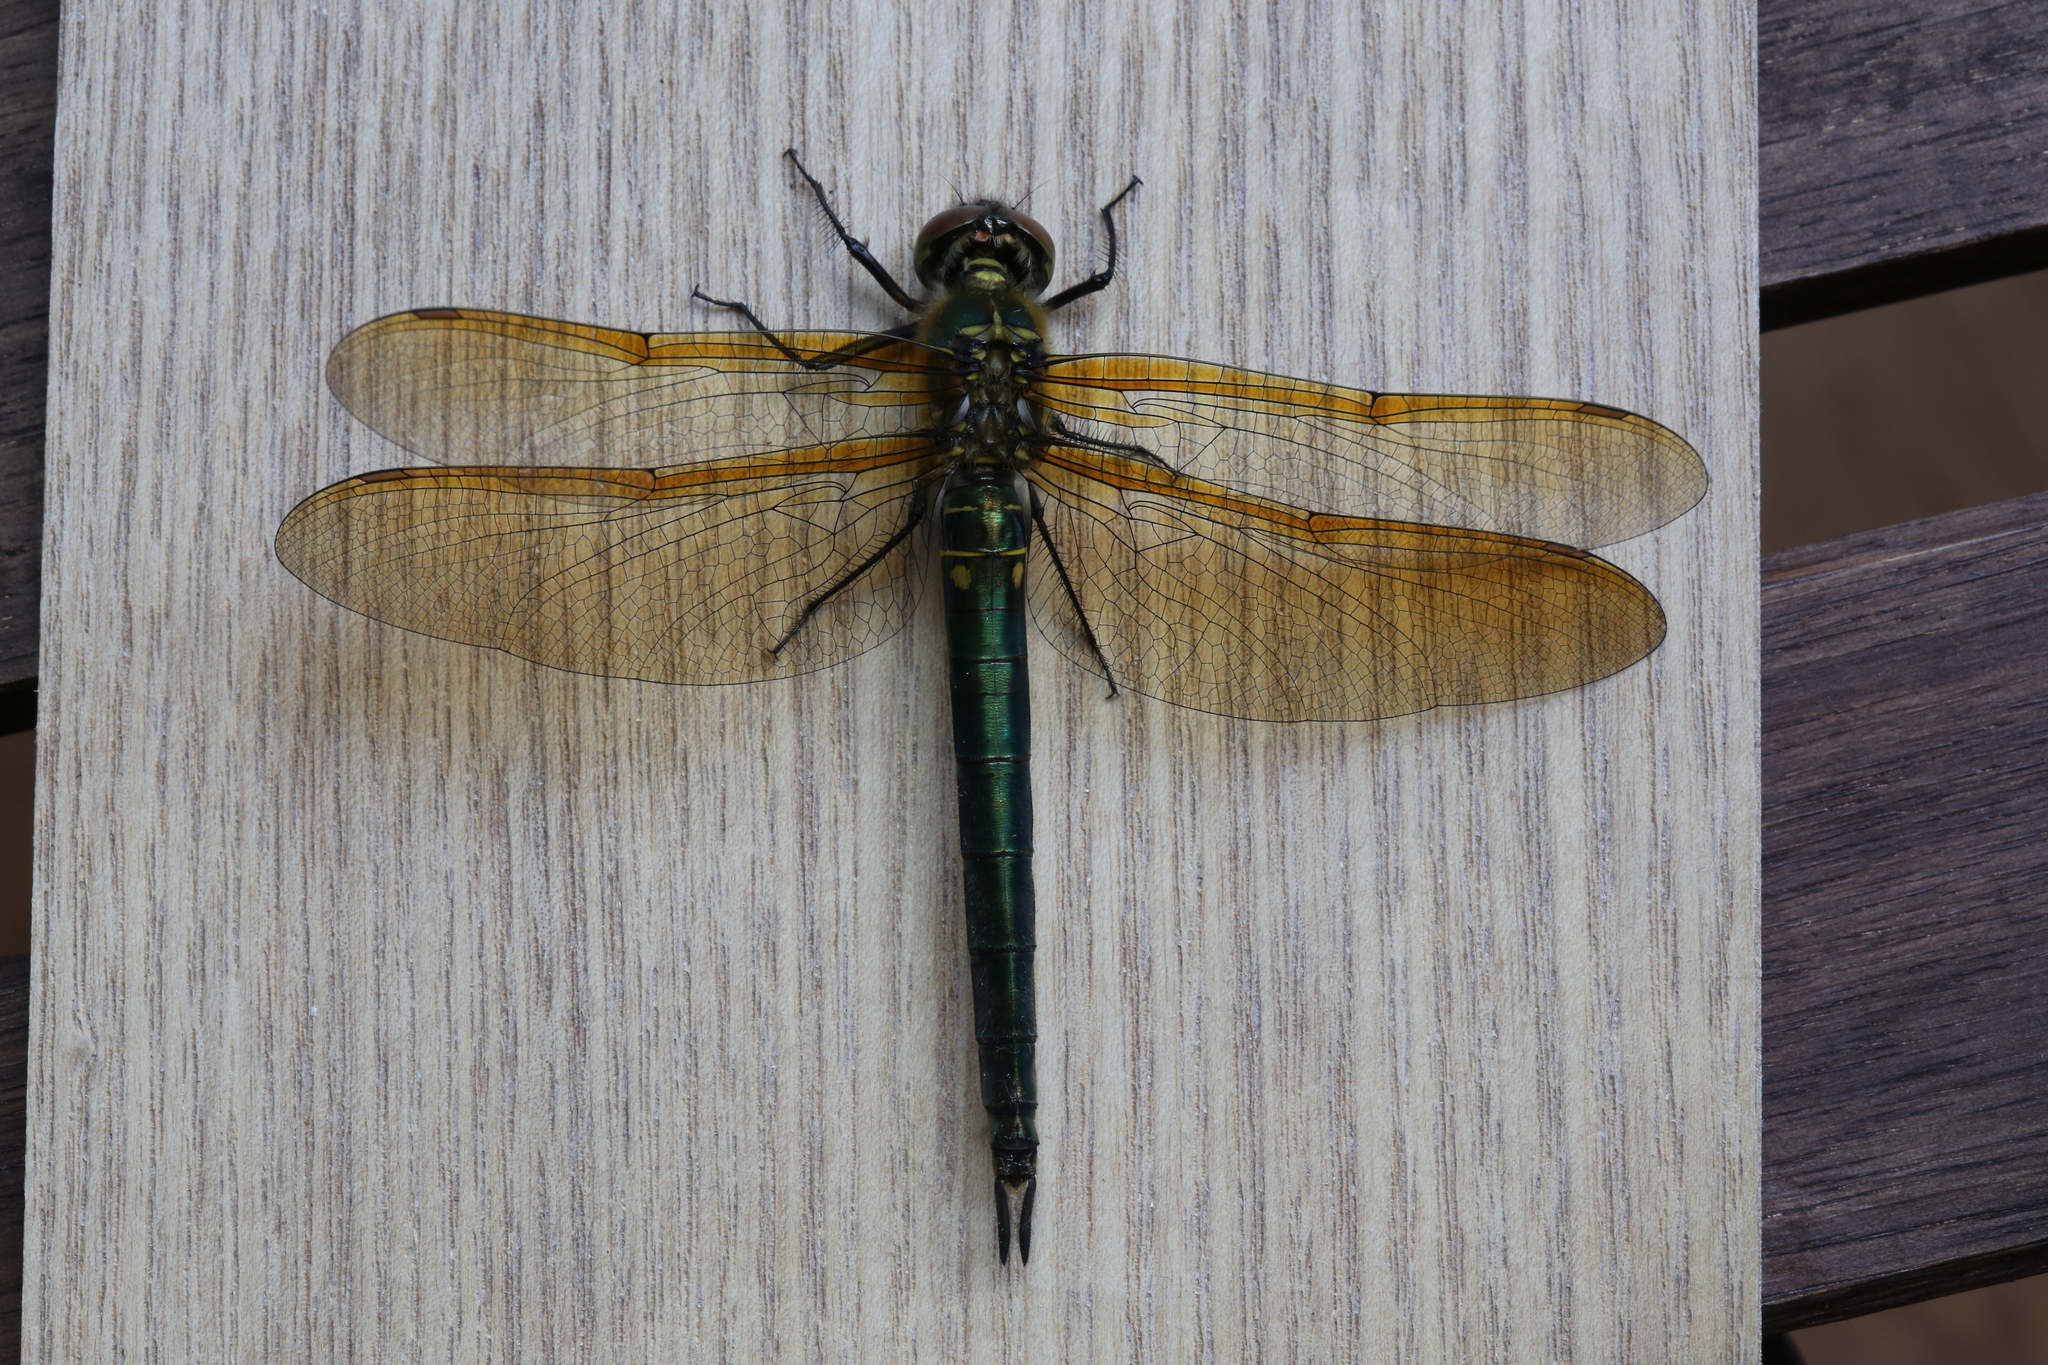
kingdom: Animalia
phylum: Arthropoda
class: Insecta
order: Odonata
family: Corduliidae
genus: Somatochlora
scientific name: Somatochlora metallica
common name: Brilliant emerald
